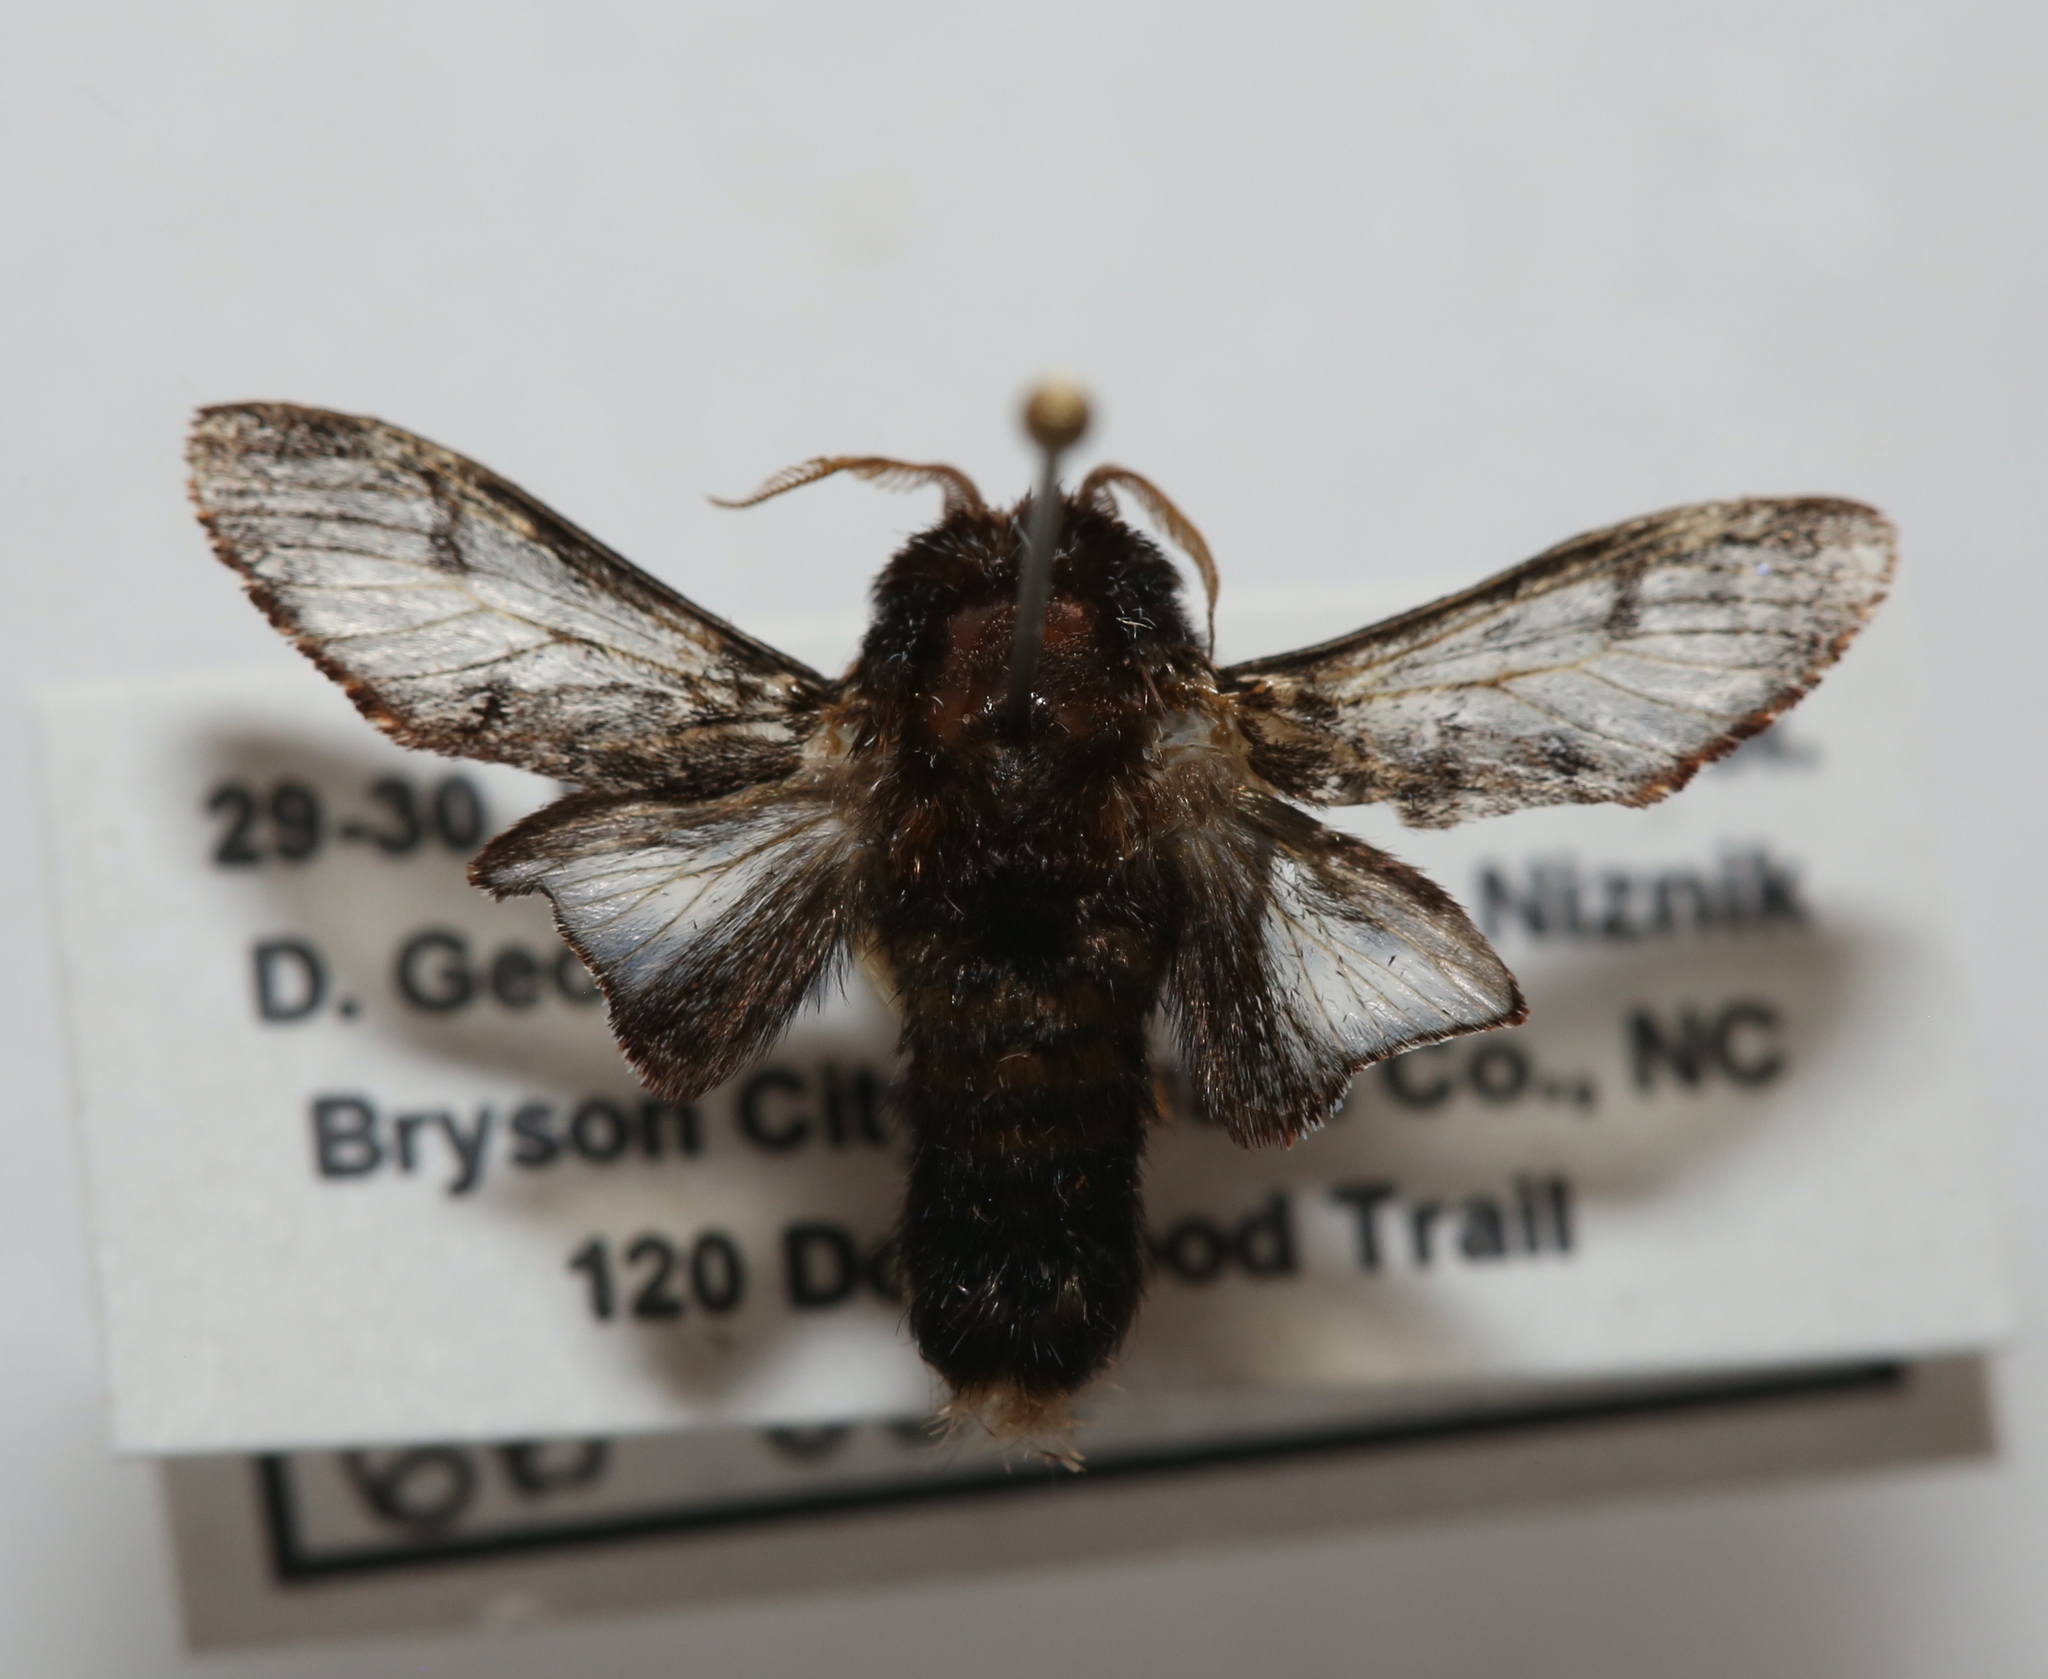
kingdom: Animalia
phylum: Arthropoda
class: Insecta
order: Lepidoptera
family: Limacodidae
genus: Phobetron
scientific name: Phobetron pithecium
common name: Hag moth
